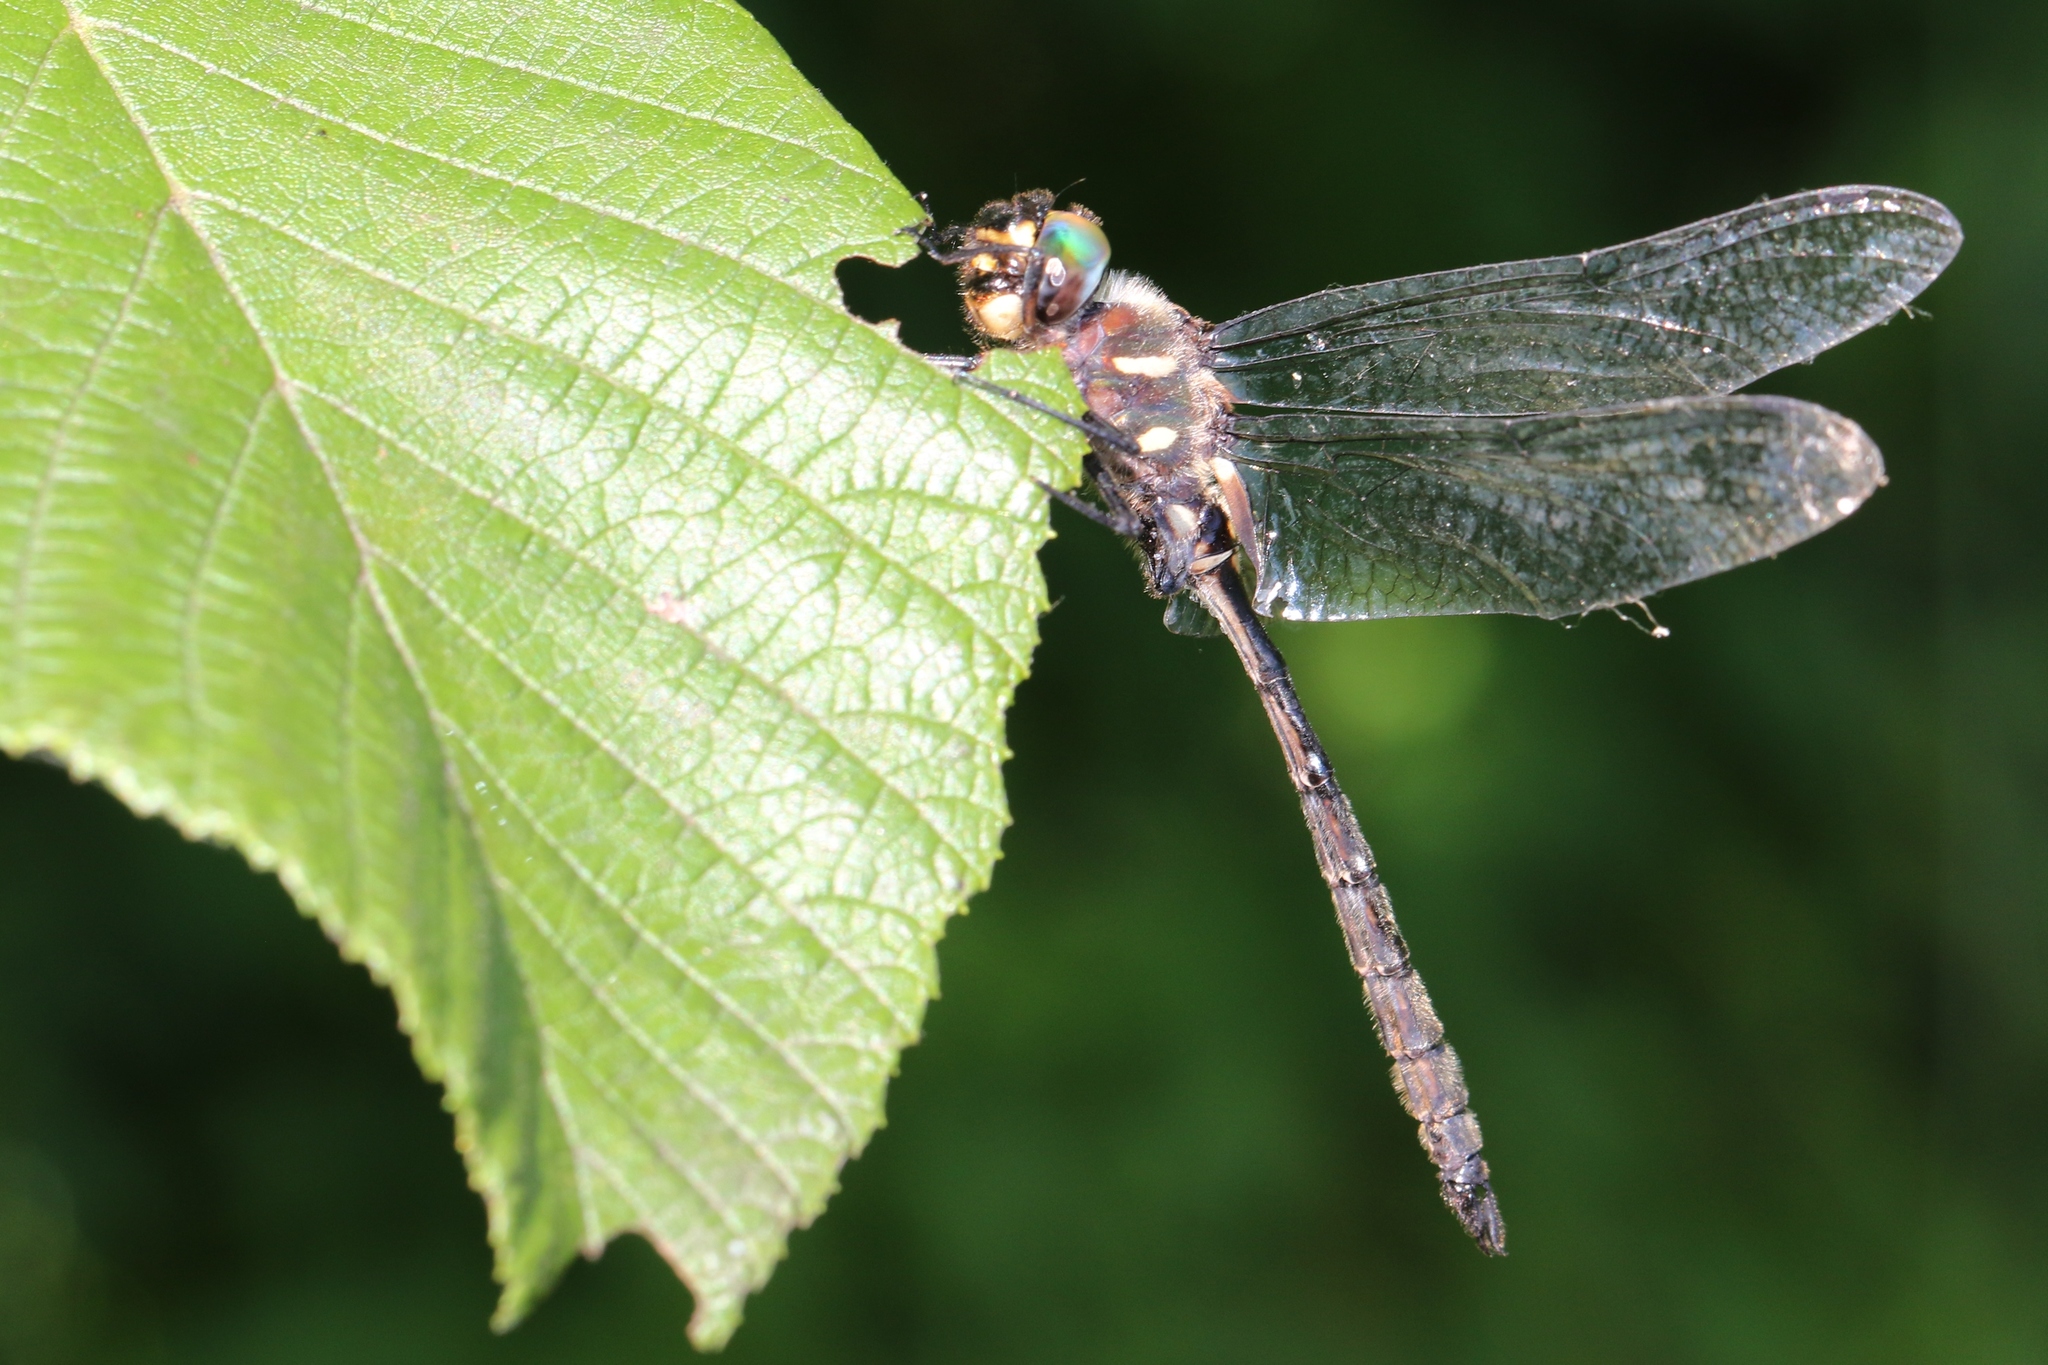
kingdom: Animalia
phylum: Arthropoda
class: Insecta
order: Odonata
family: Corduliidae
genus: Somatochlora
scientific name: Somatochlora elongata
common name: Ski-tipped emerald
